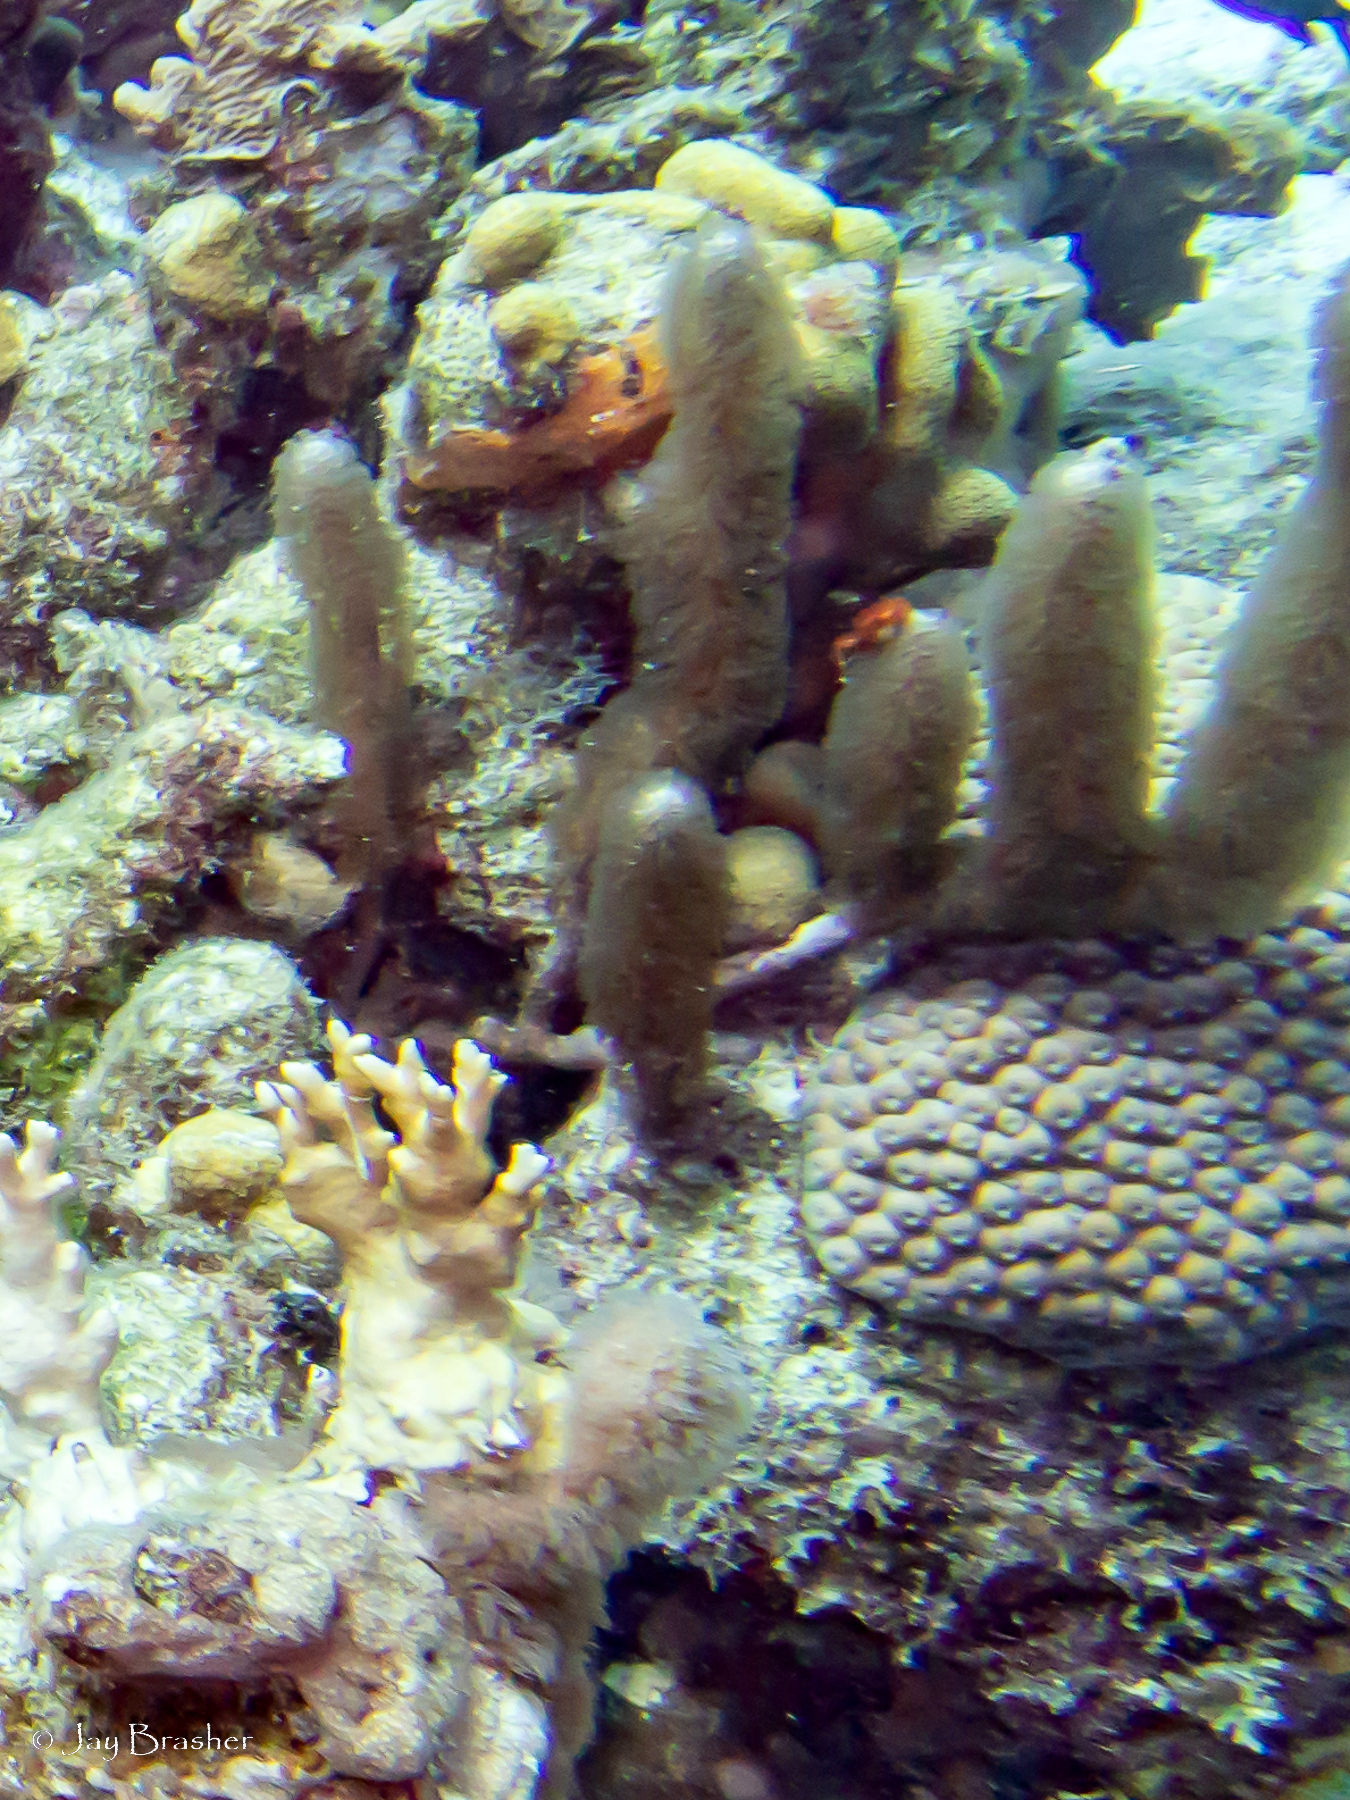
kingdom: Animalia
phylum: Cnidaria
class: Anthozoa
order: Scleractinia
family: Montastraeidae
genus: Montastraea
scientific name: Montastraea cavernosa
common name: Great star coral
